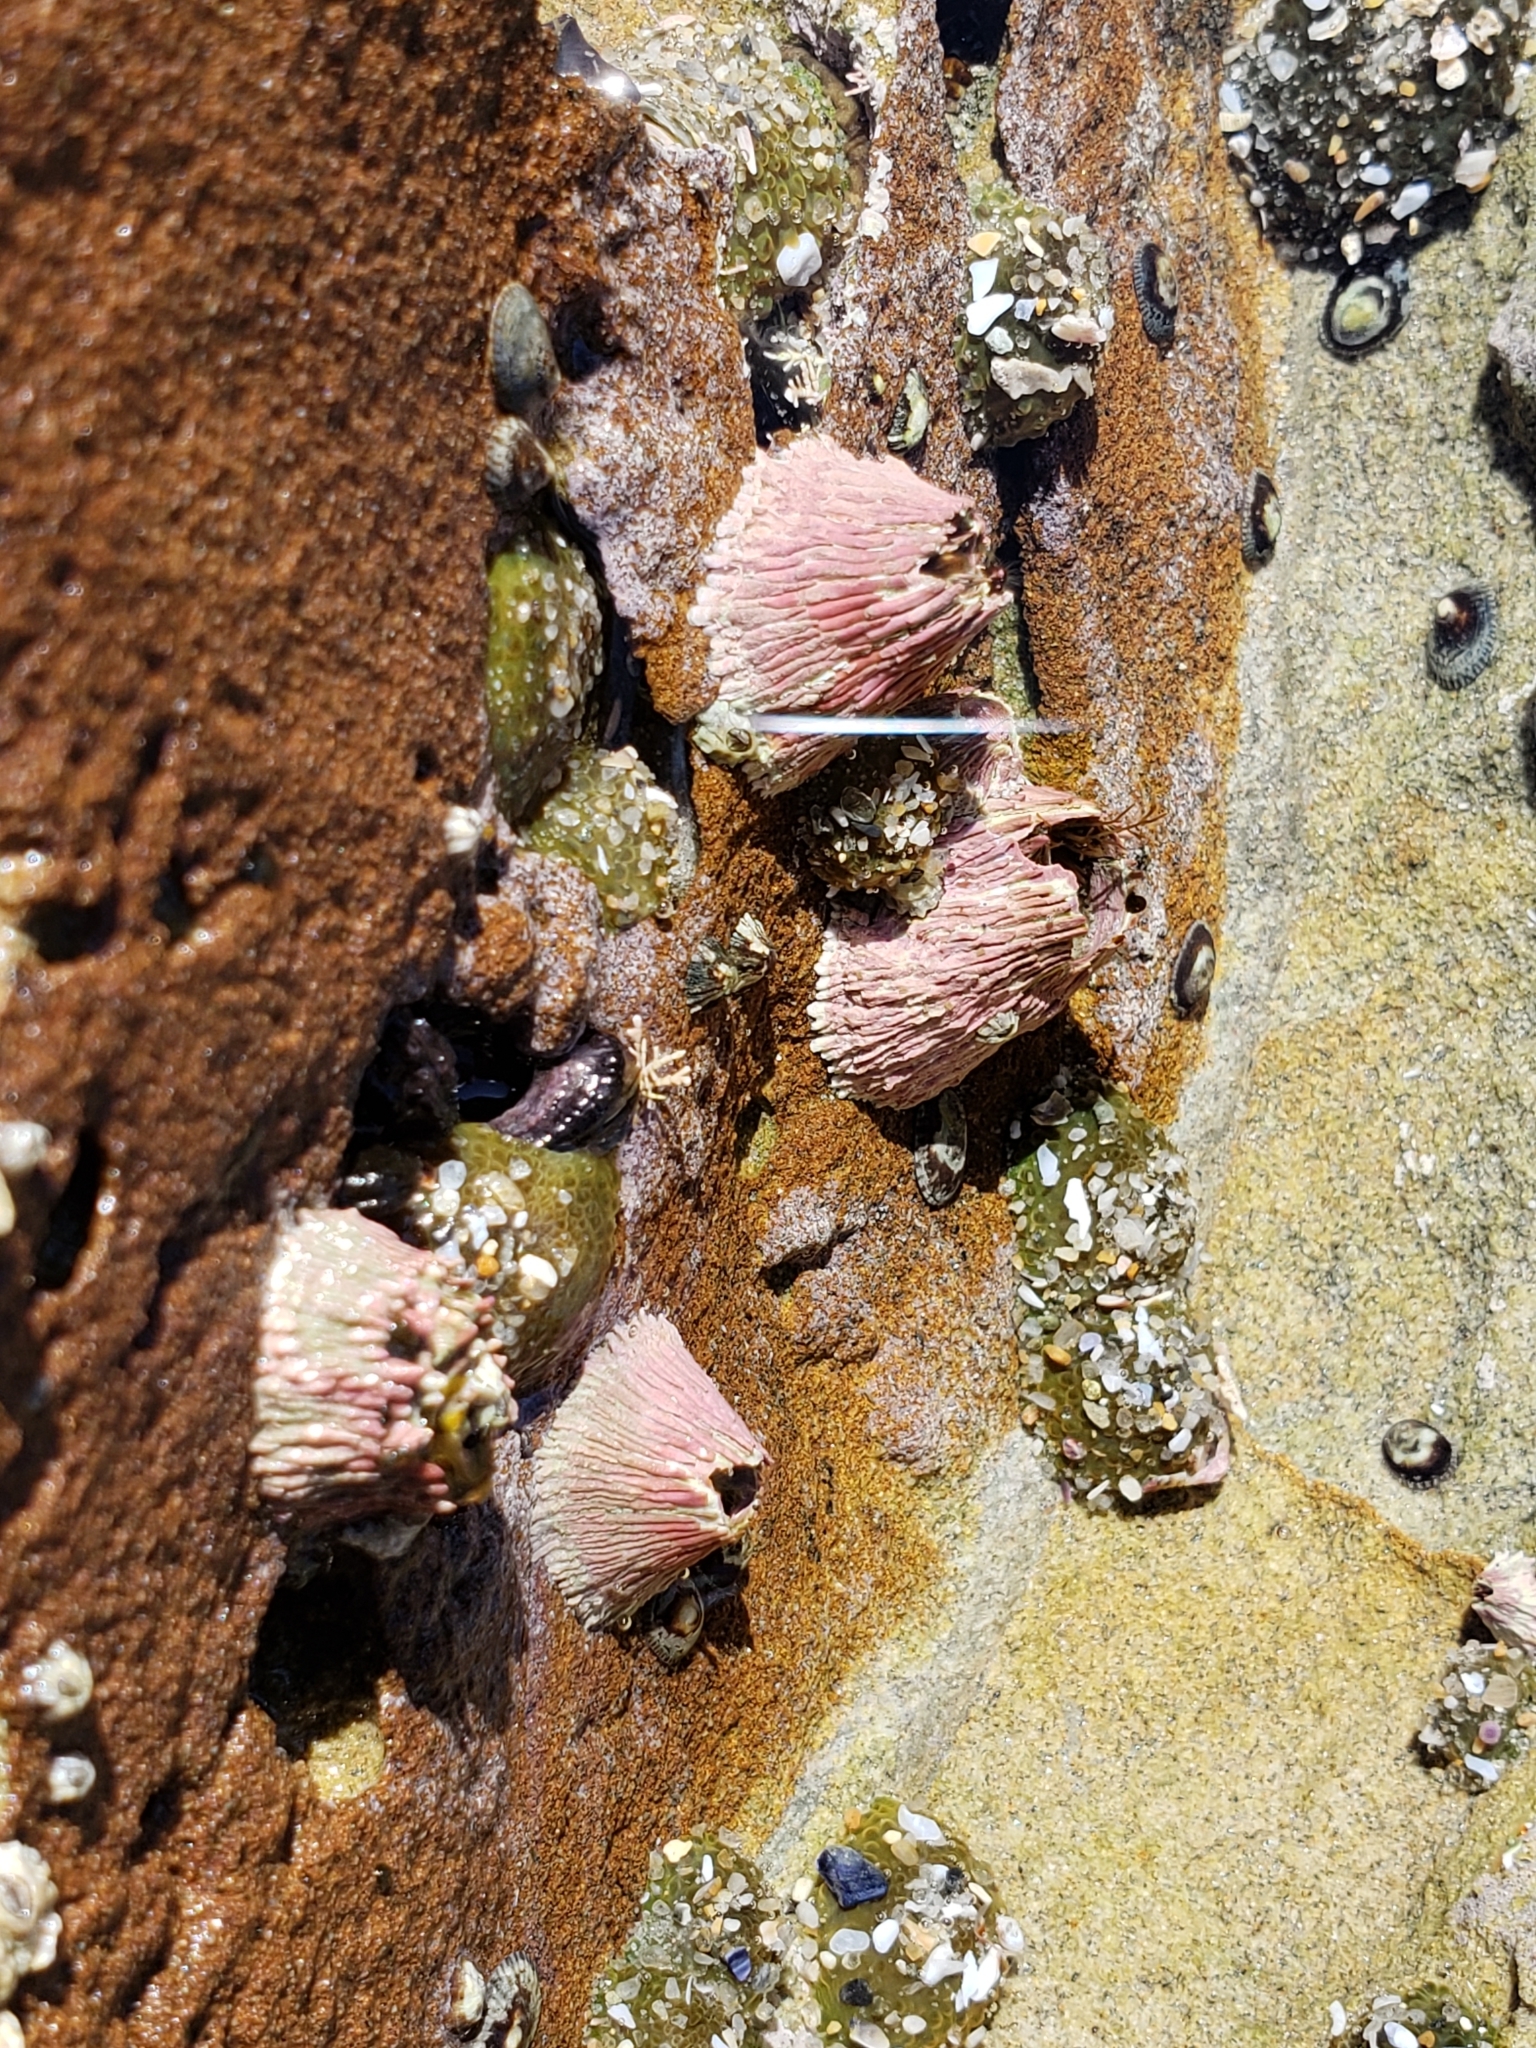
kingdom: Animalia
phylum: Arthropoda
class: Maxillopoda
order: Sessilia
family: Tetraclitidae
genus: Tetraclita
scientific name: Tetraclita rubescens
